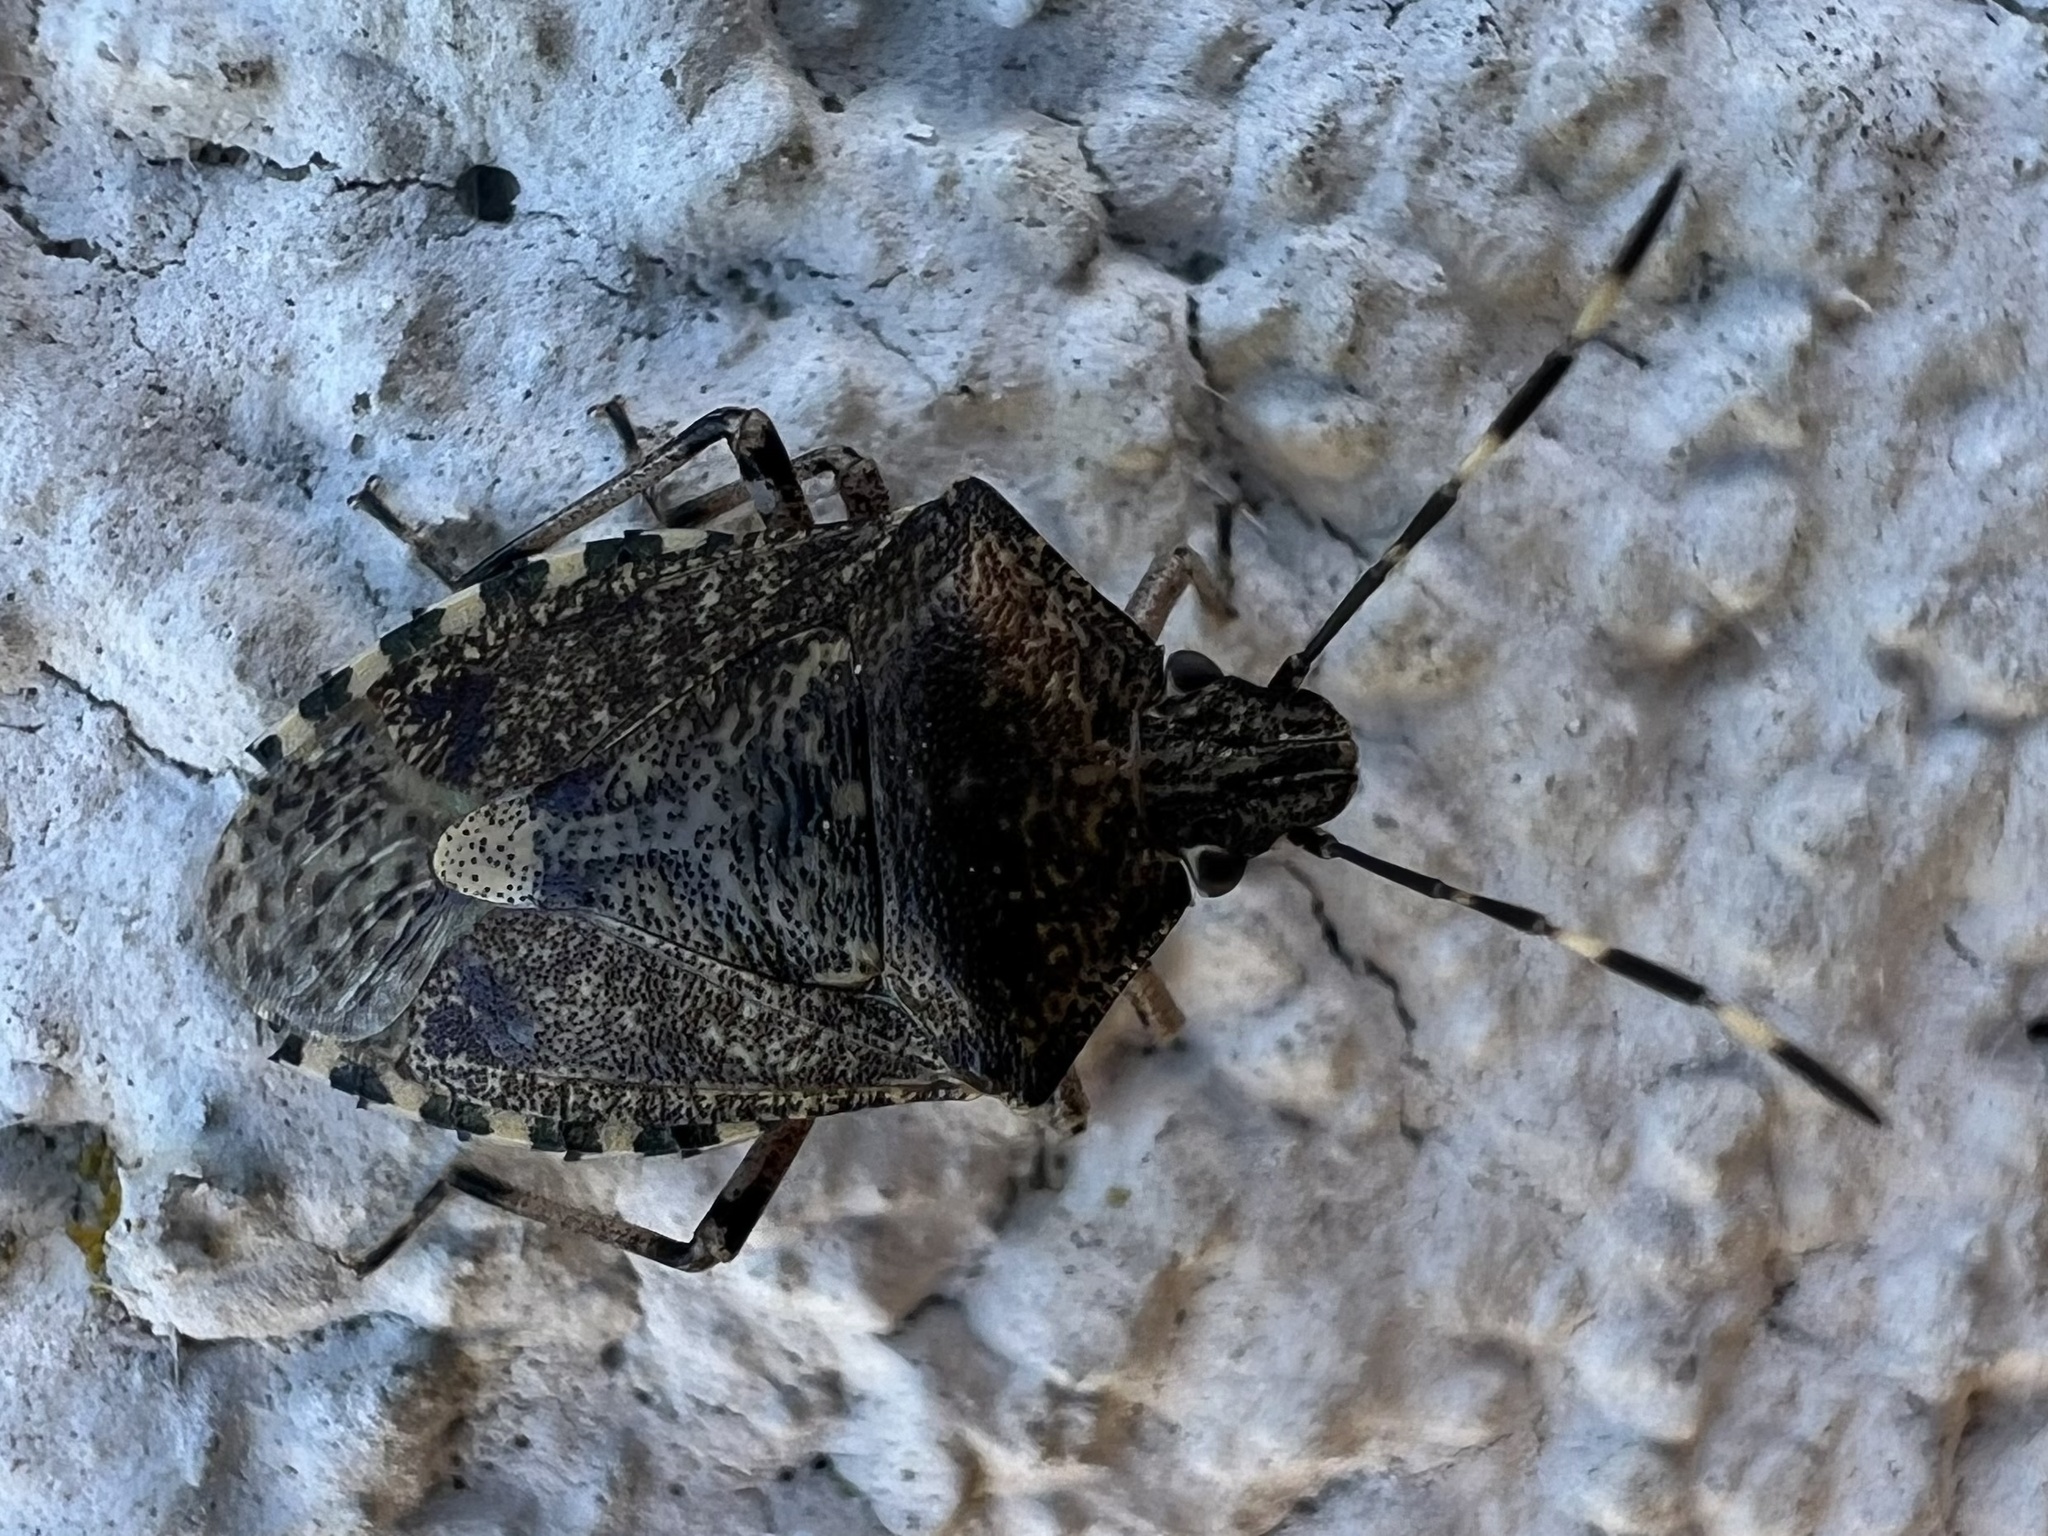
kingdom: Animalia
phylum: Arthropoda
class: Insecta
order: Hemiptera
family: Pentatomidae
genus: Rhaphigaster
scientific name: Rhaphigaster nebulosa
